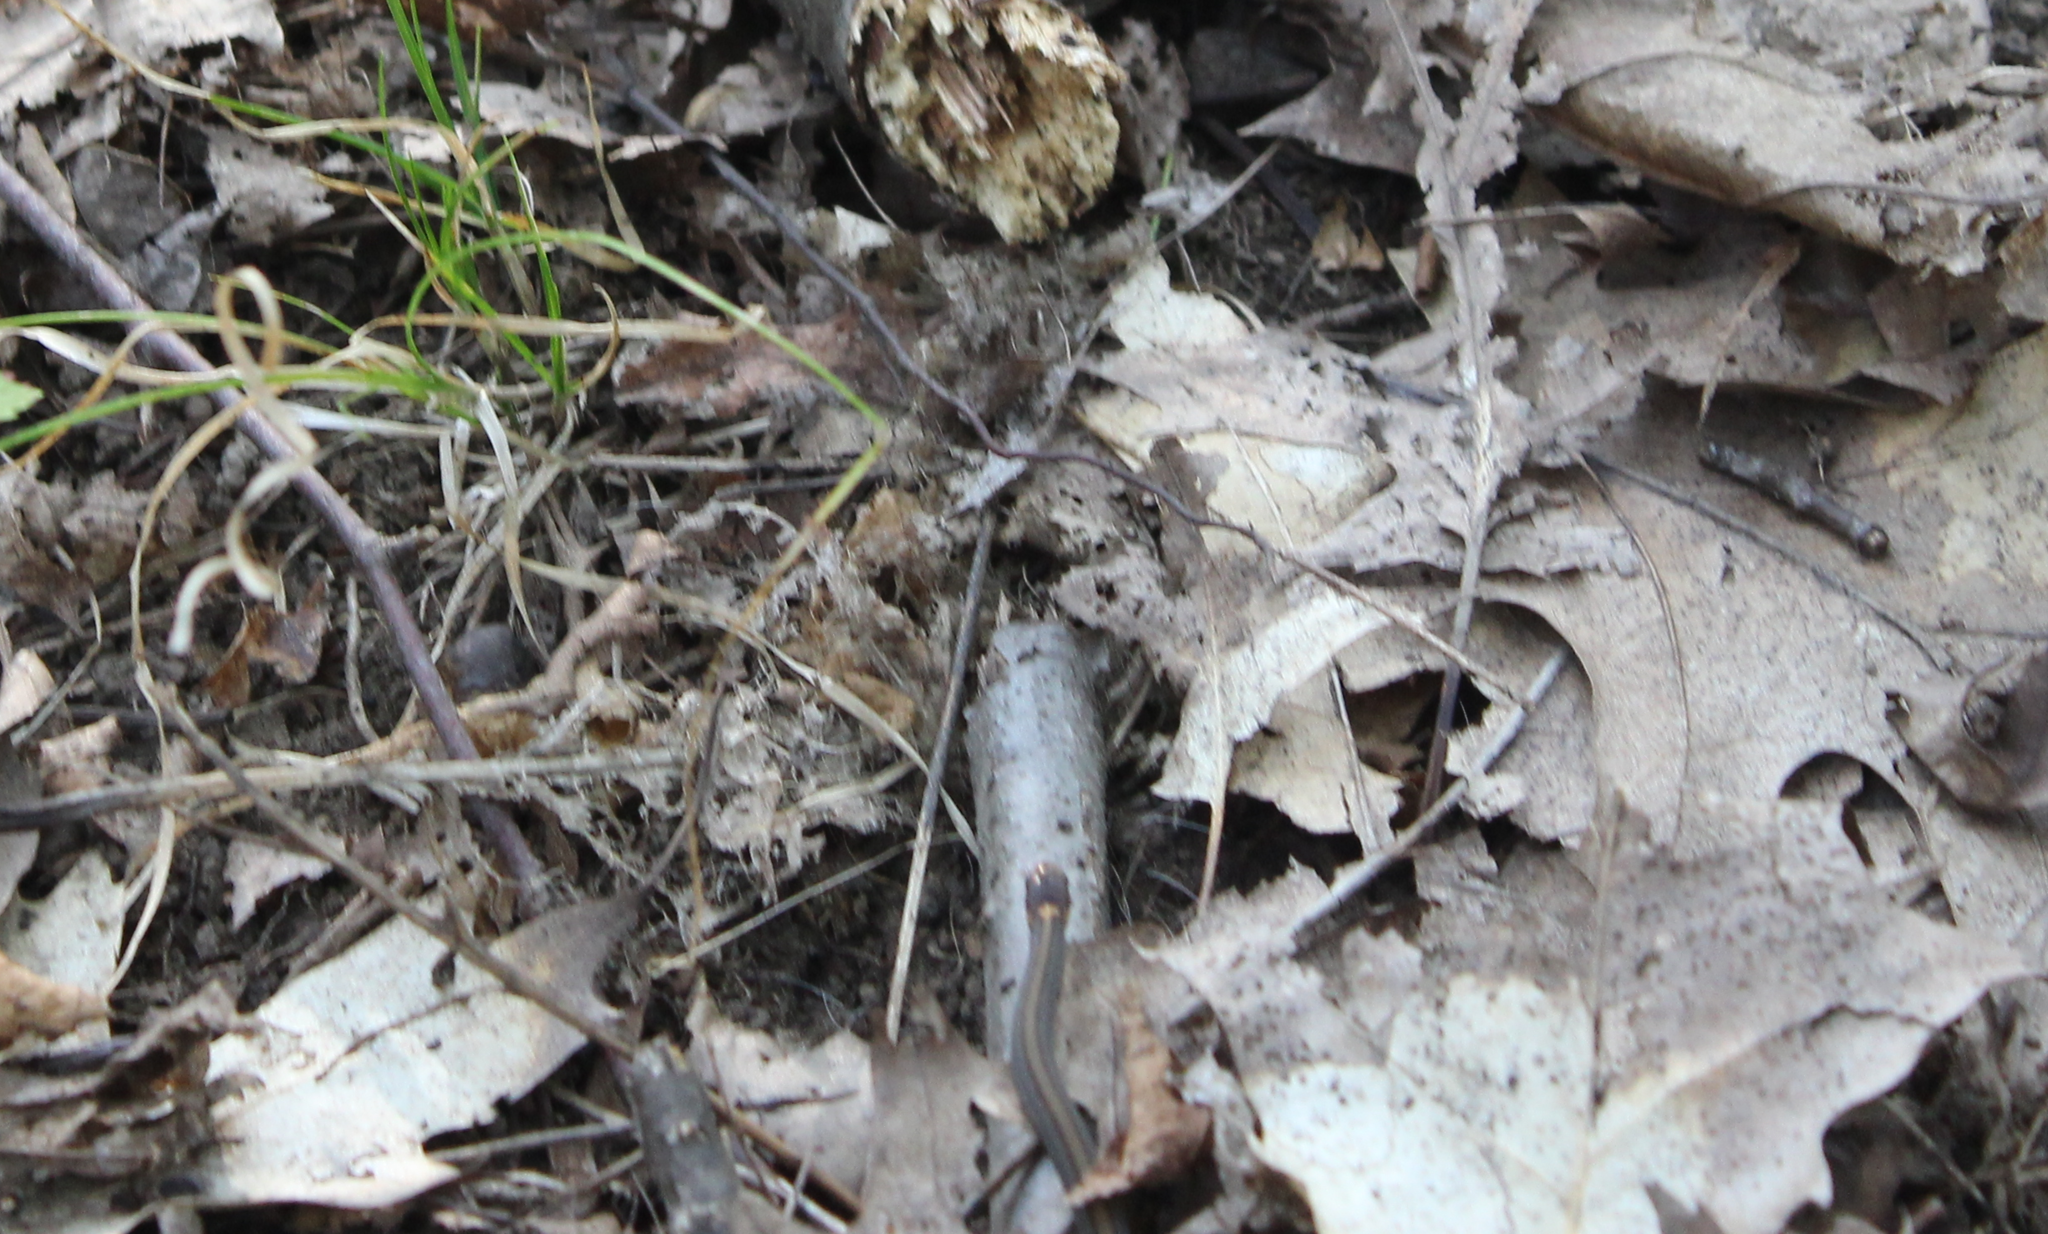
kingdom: Animalia
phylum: Chordata
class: Squamata
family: Colubridae
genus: Storeria
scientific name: Storeria occipitomaculata
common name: Redbelly snake
